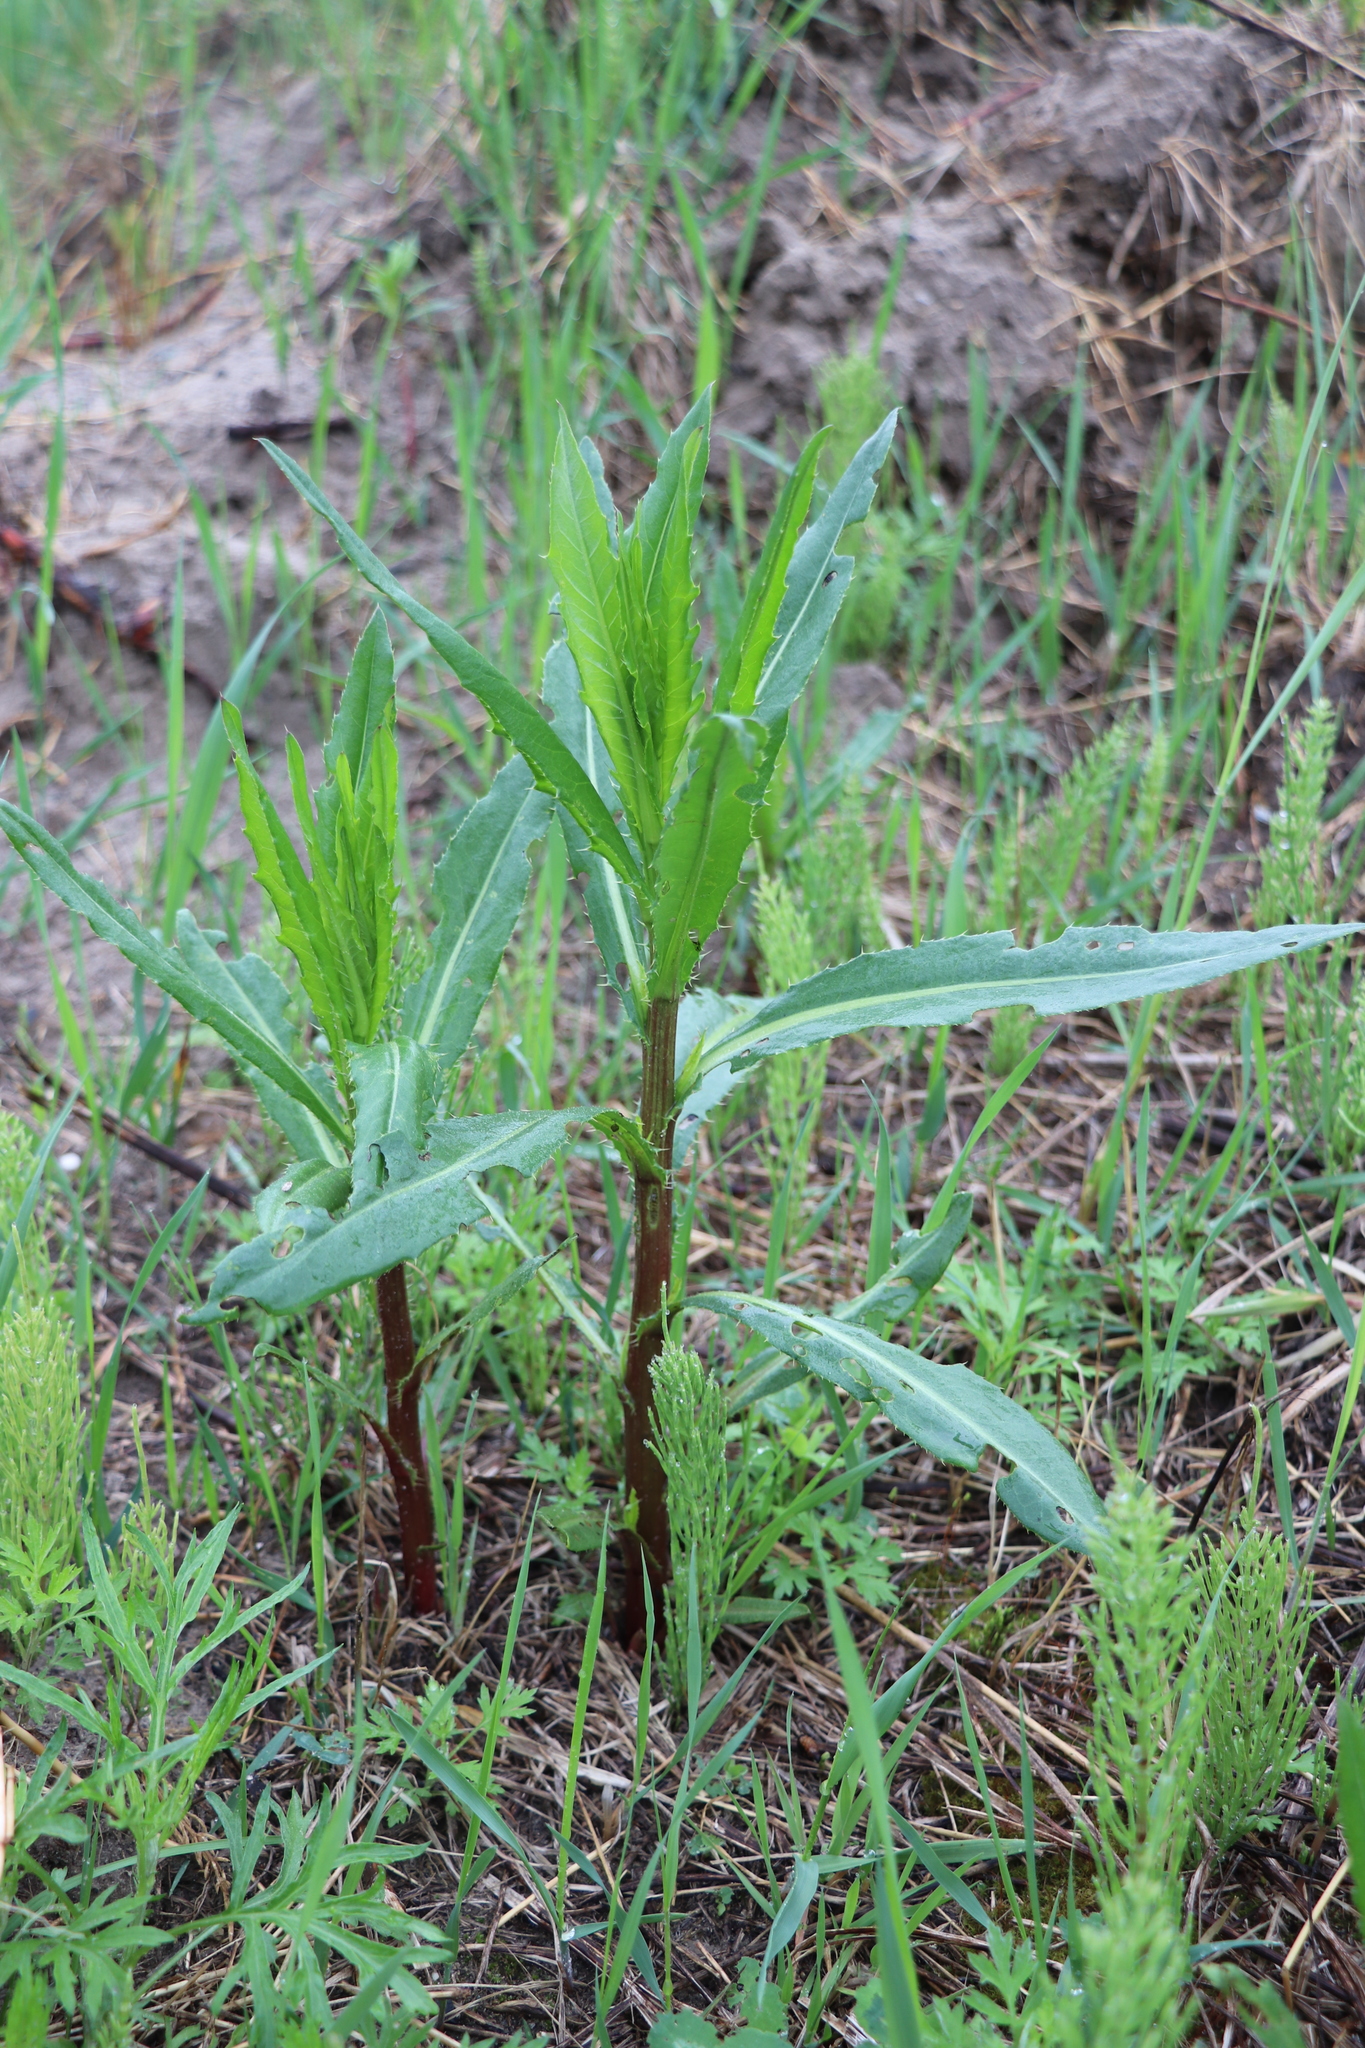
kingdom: Plantae
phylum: Tracheophyta
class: Magnoliopsida
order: Asterales
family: Asteraceae
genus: Cirsium
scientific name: Cirsium arvense
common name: Creeping thistle
